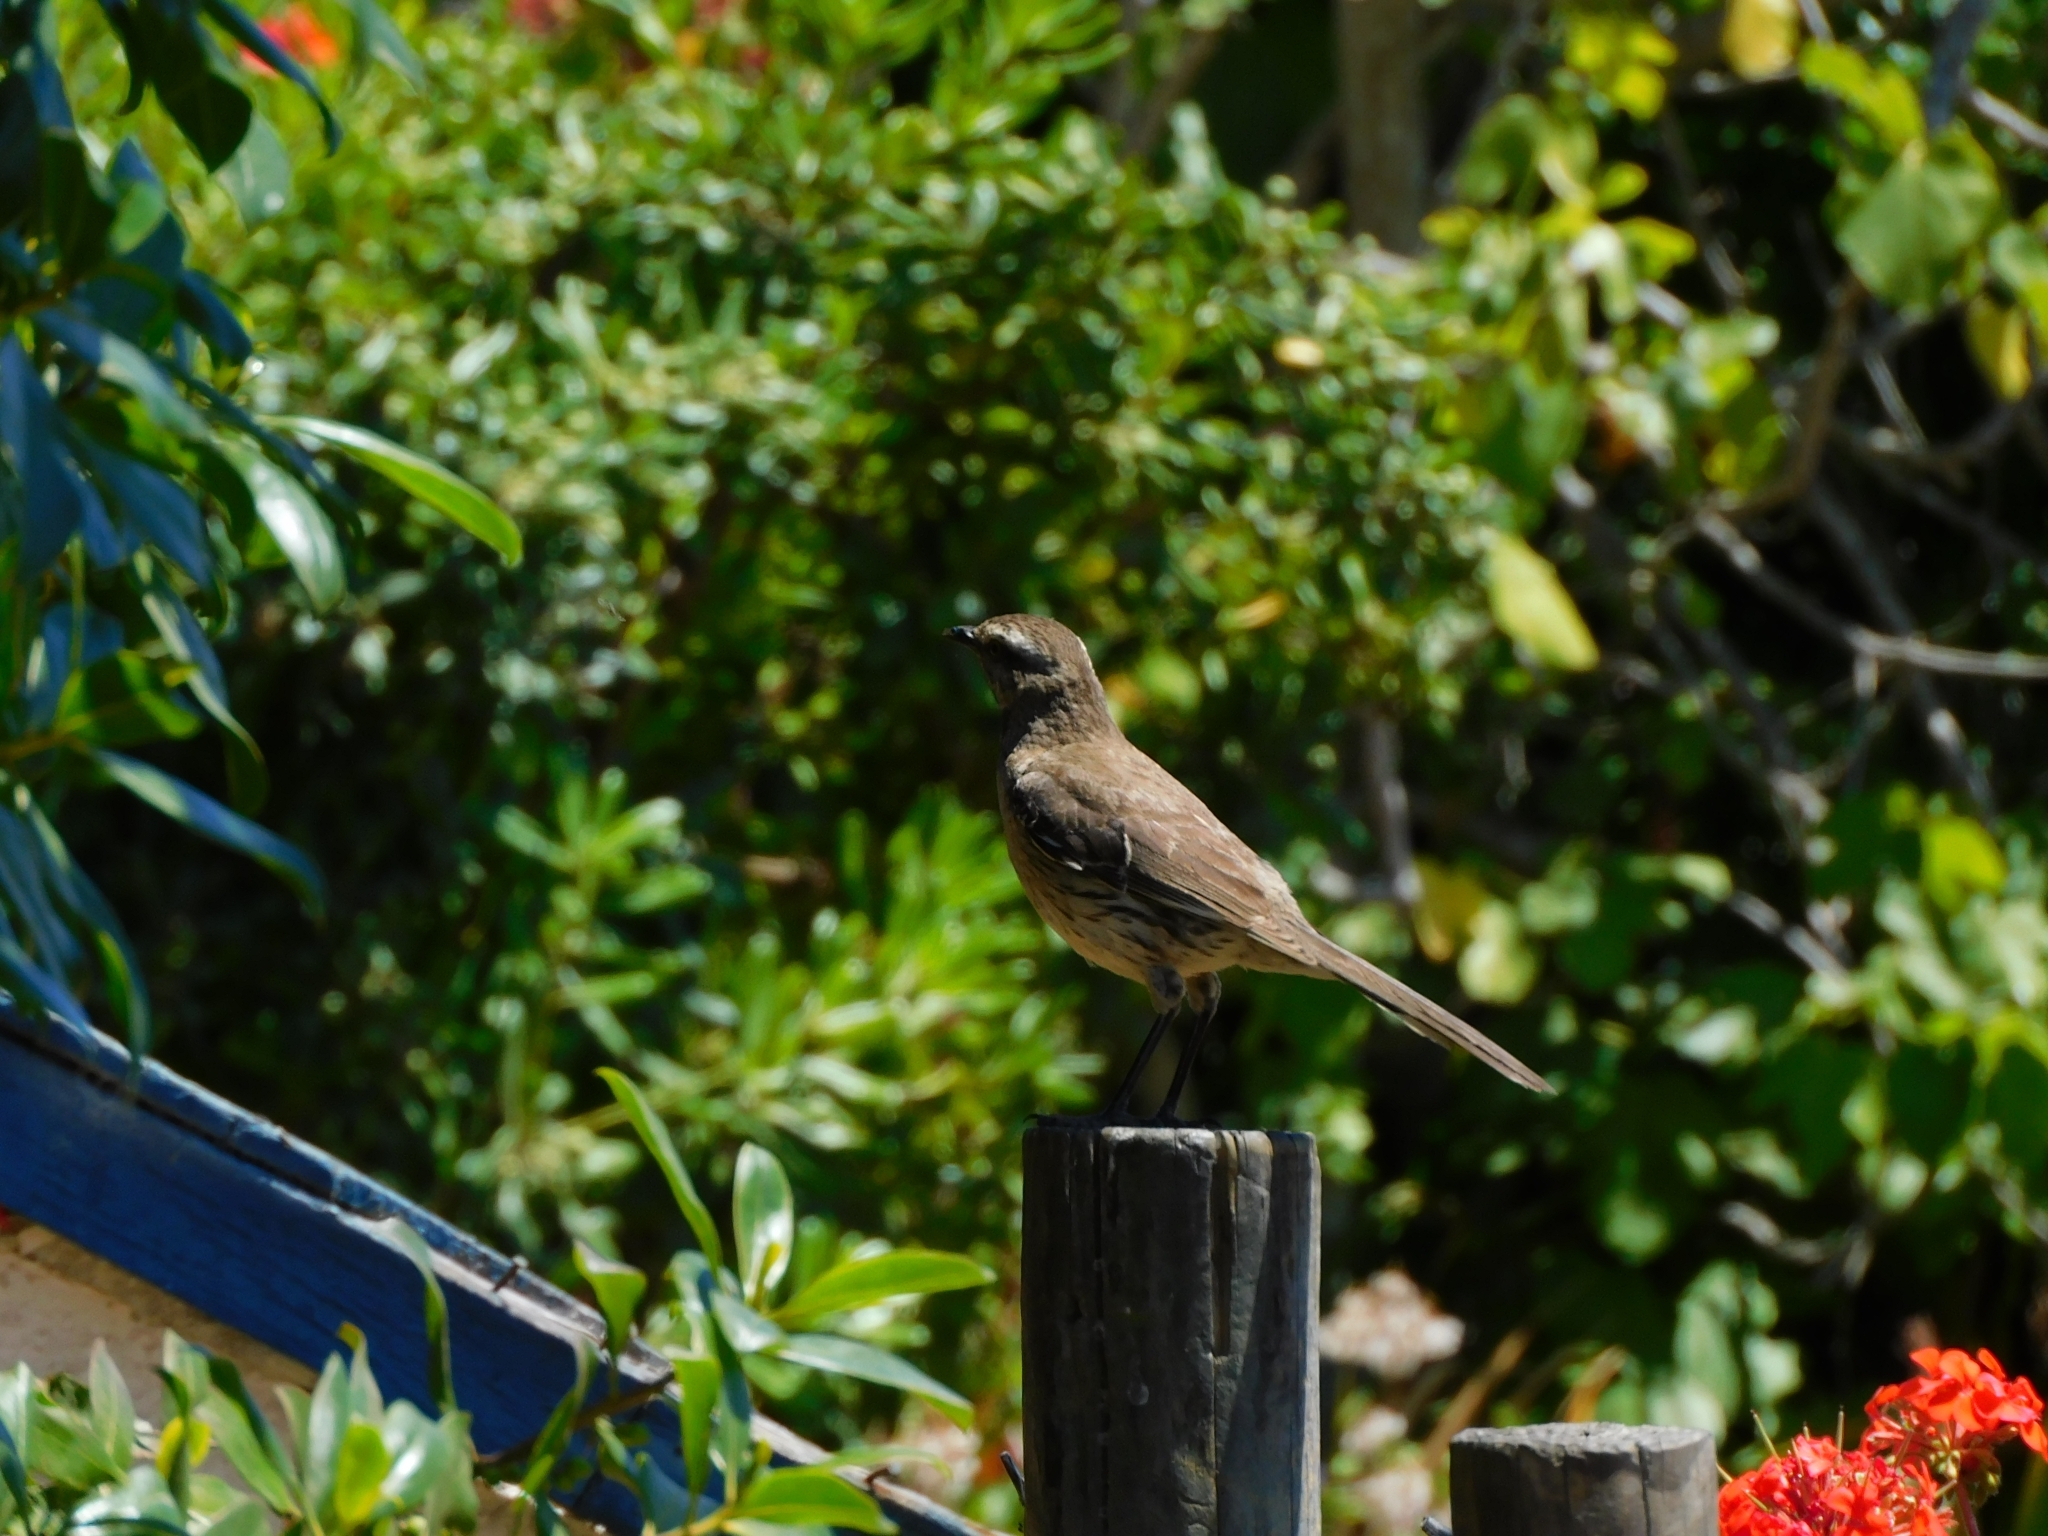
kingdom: Animalia
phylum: Chordata
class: Aves
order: Passeriformes
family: Mimidae
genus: Mimus
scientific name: Mimus thenca
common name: Chilean mockingbird
